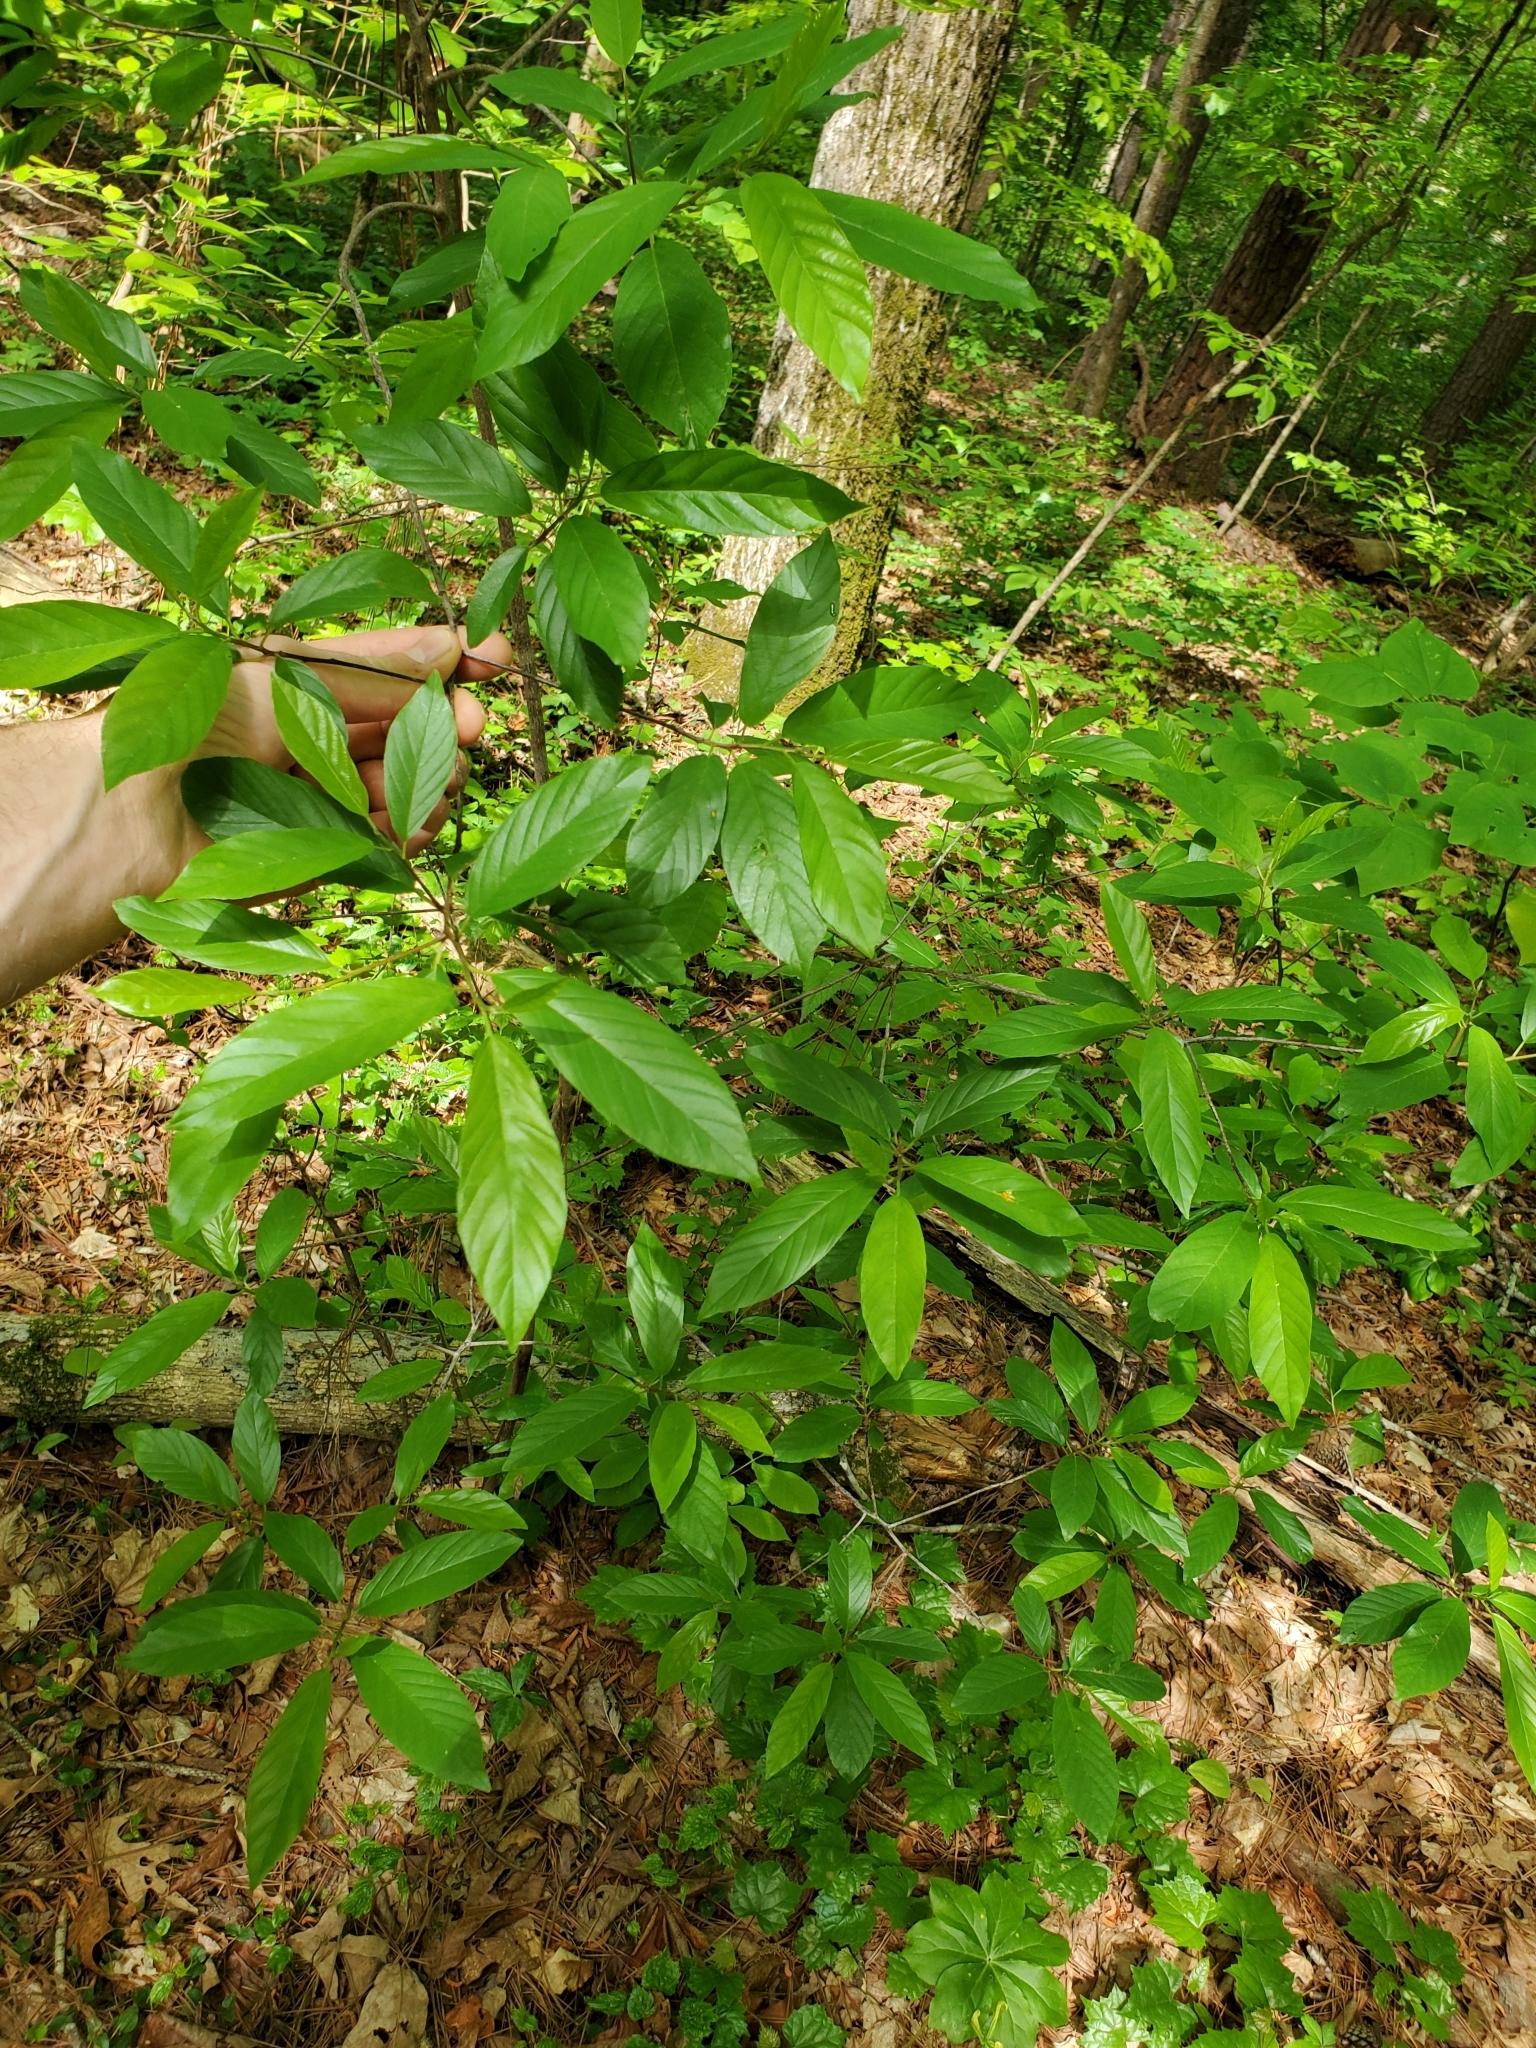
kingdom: Plantae
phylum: Tracheophyta
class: Magnoliopsida
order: Rosales
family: Rhamnaceae
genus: Frangula
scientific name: Frangula caroliniana
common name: Carolina buckthorn
